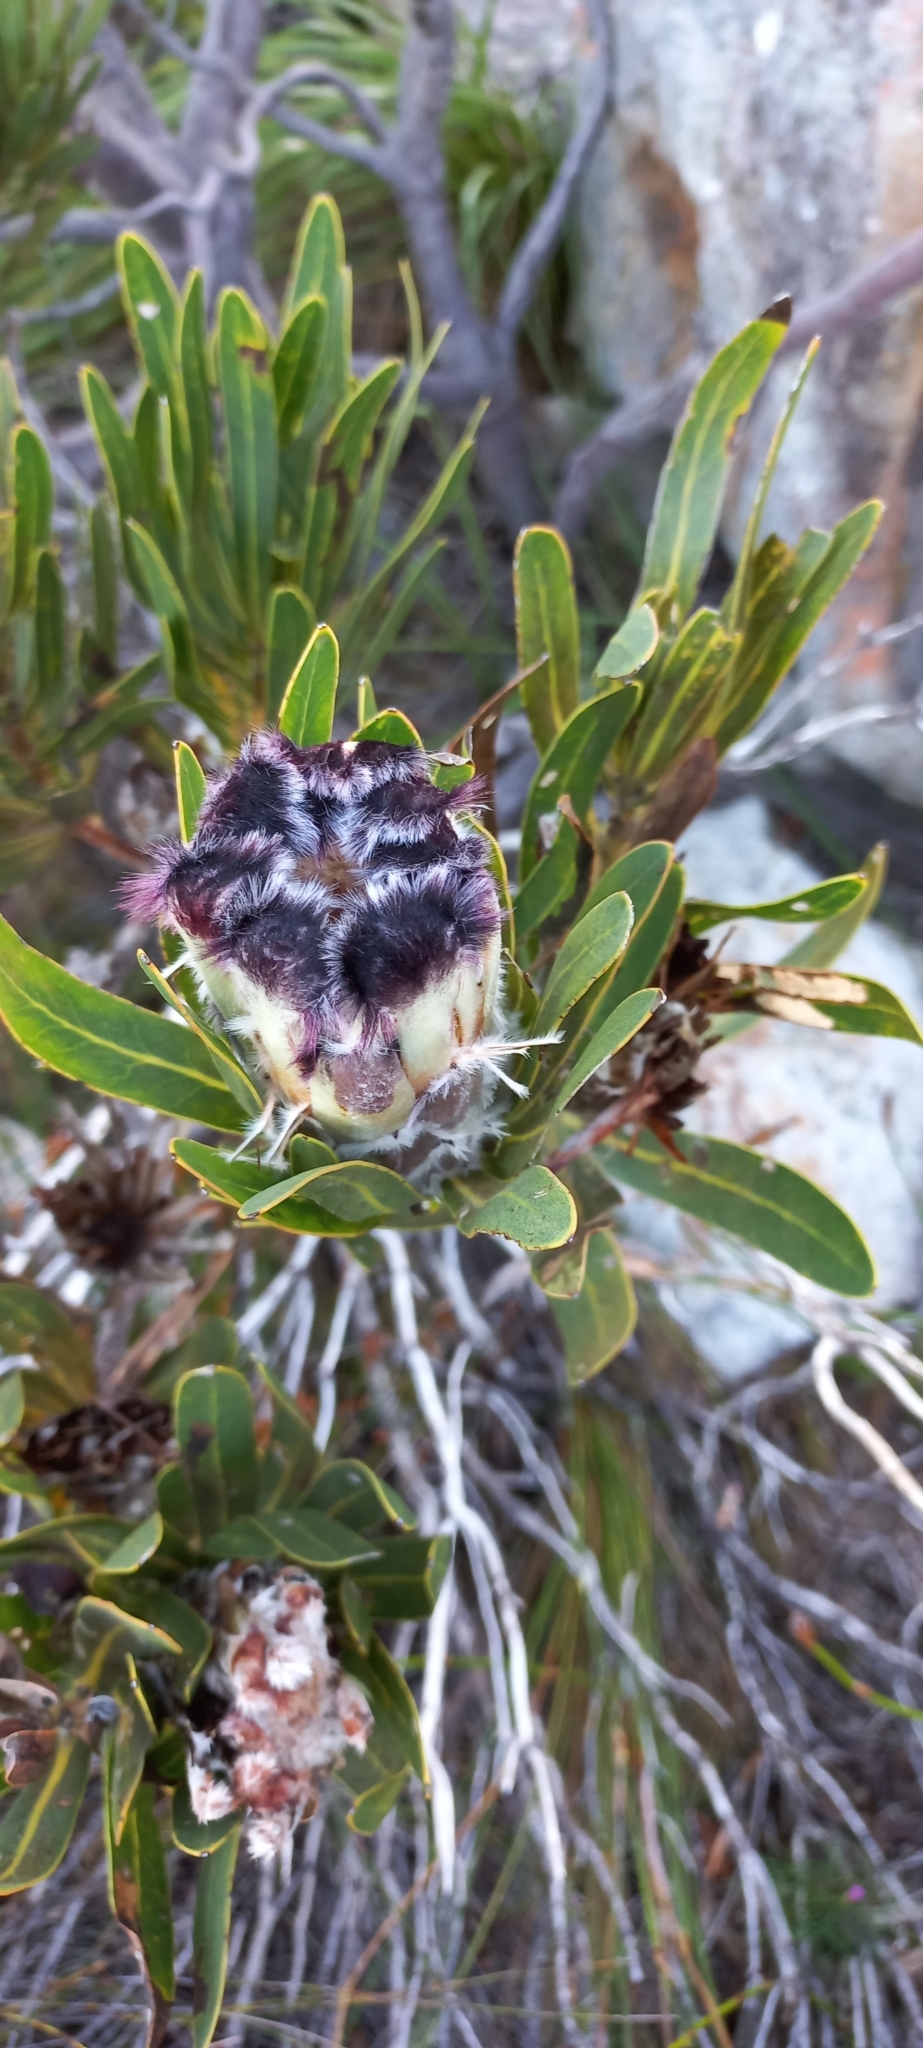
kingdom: Plantae
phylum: Tracheophyta
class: Magnoliopsida
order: Proteales
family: Proteaceae
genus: Protea
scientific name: Protea lepidocarpodendron
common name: Black-bearded protea
